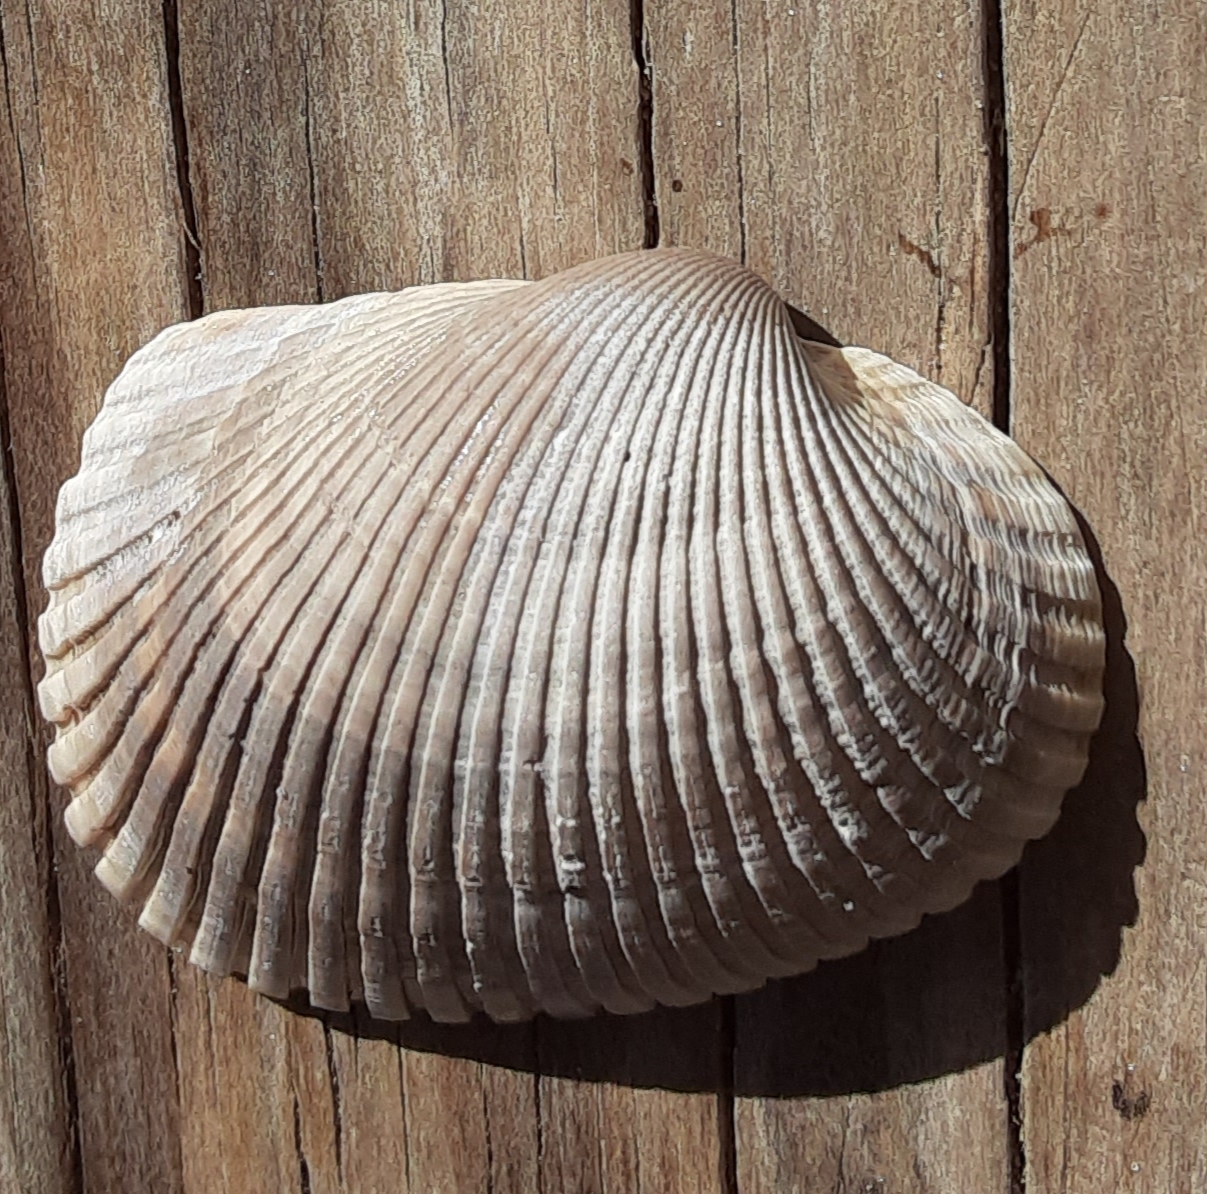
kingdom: Animalia
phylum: Mollusca
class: Bivalvia
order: Arcida
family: Arcidae
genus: Lunarca
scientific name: Lunarca ovalis
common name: Blood ark
